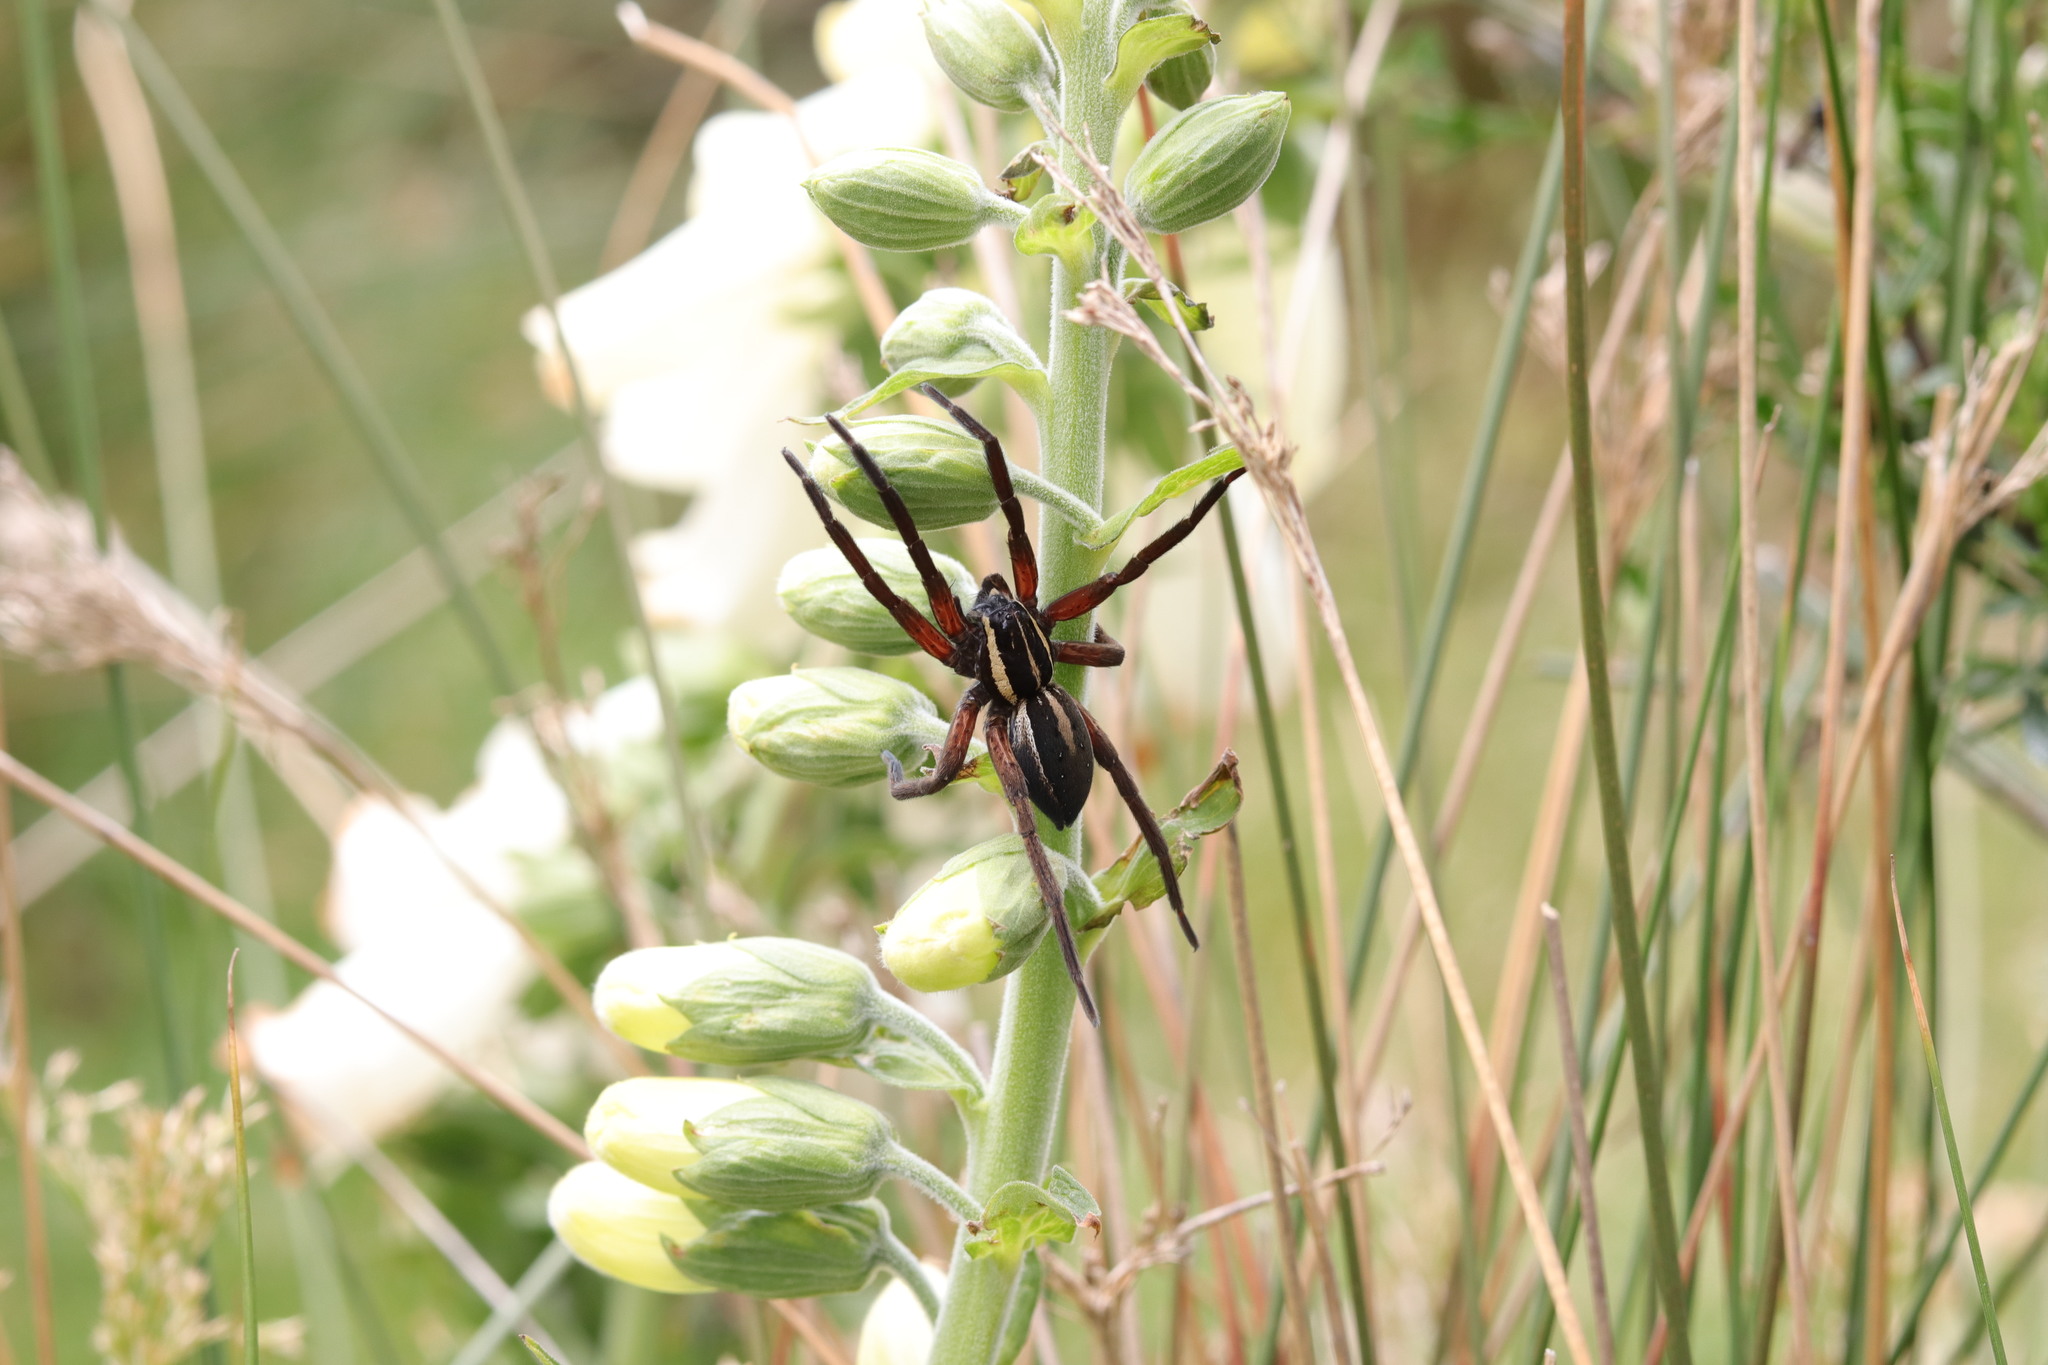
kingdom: Animalia
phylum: Arthropoda
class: Arachnida
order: Araneae
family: Pisauridae
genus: Dolomedes
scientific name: Dolomedes minor
